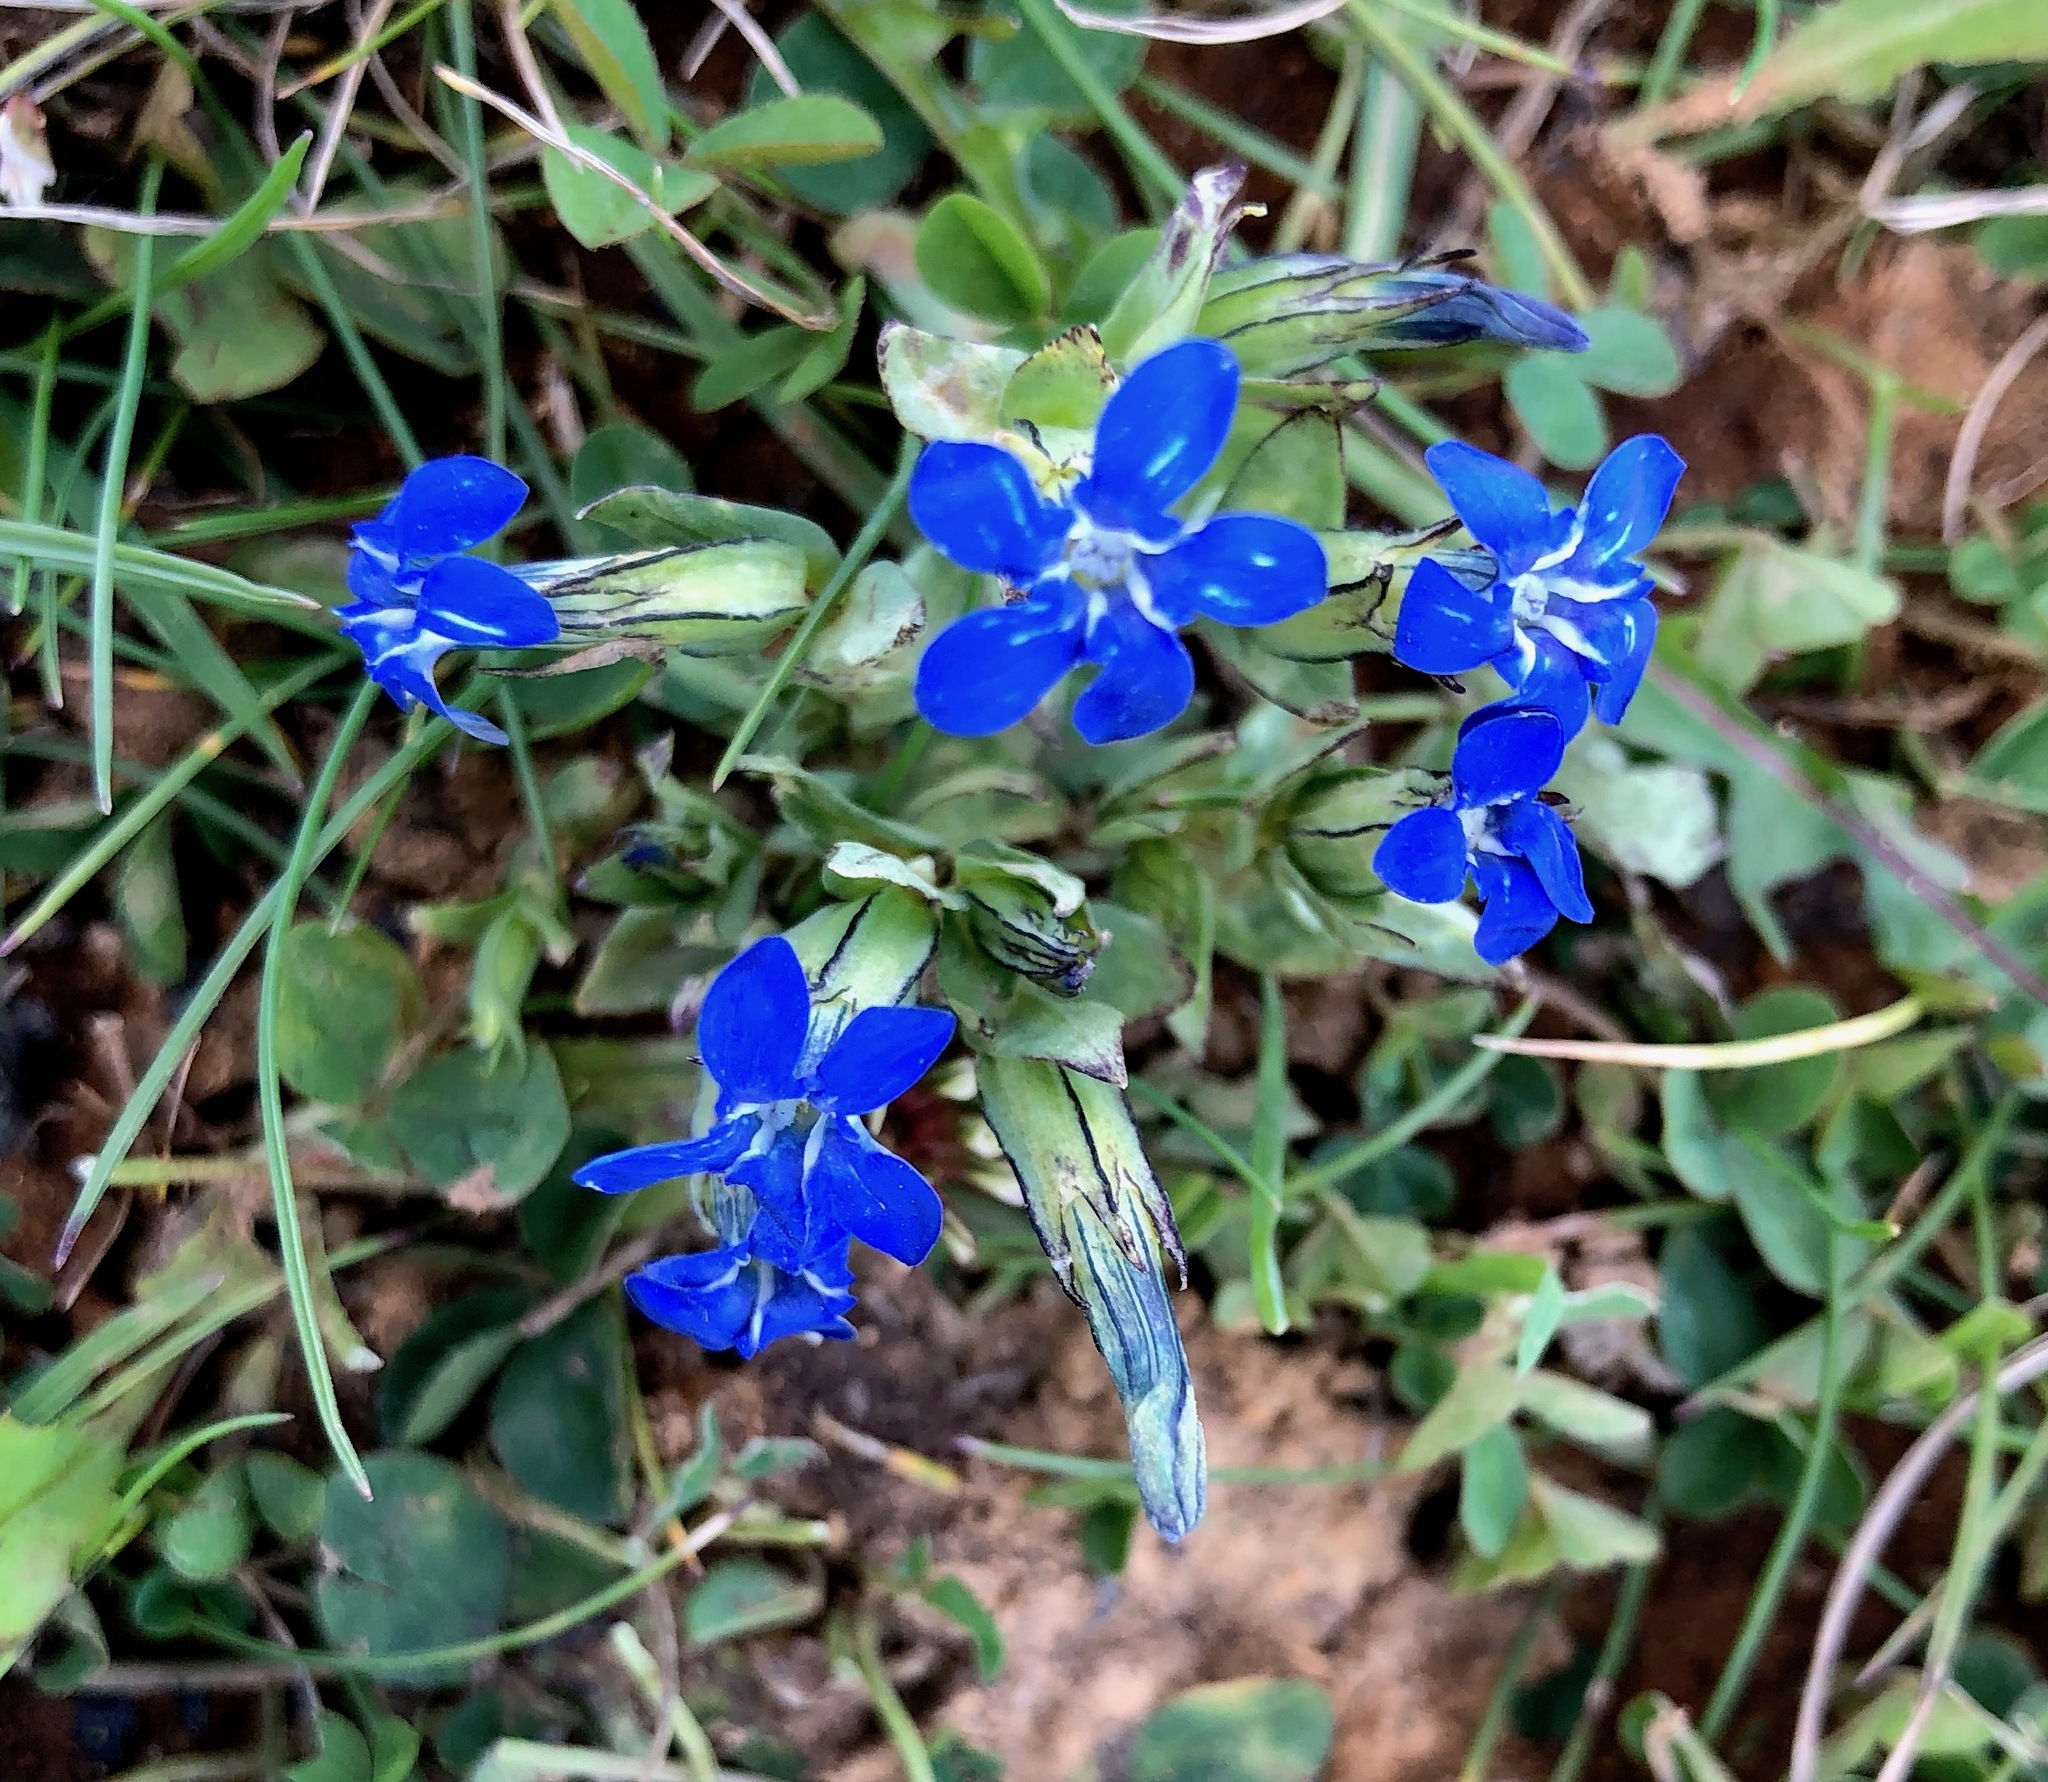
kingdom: Plantae
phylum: Tracheophyta
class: Magnoliopsida
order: Gentianales
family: Gentianaceae
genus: Gentiana
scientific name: Gentiana nivalis
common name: Alpine gentian
